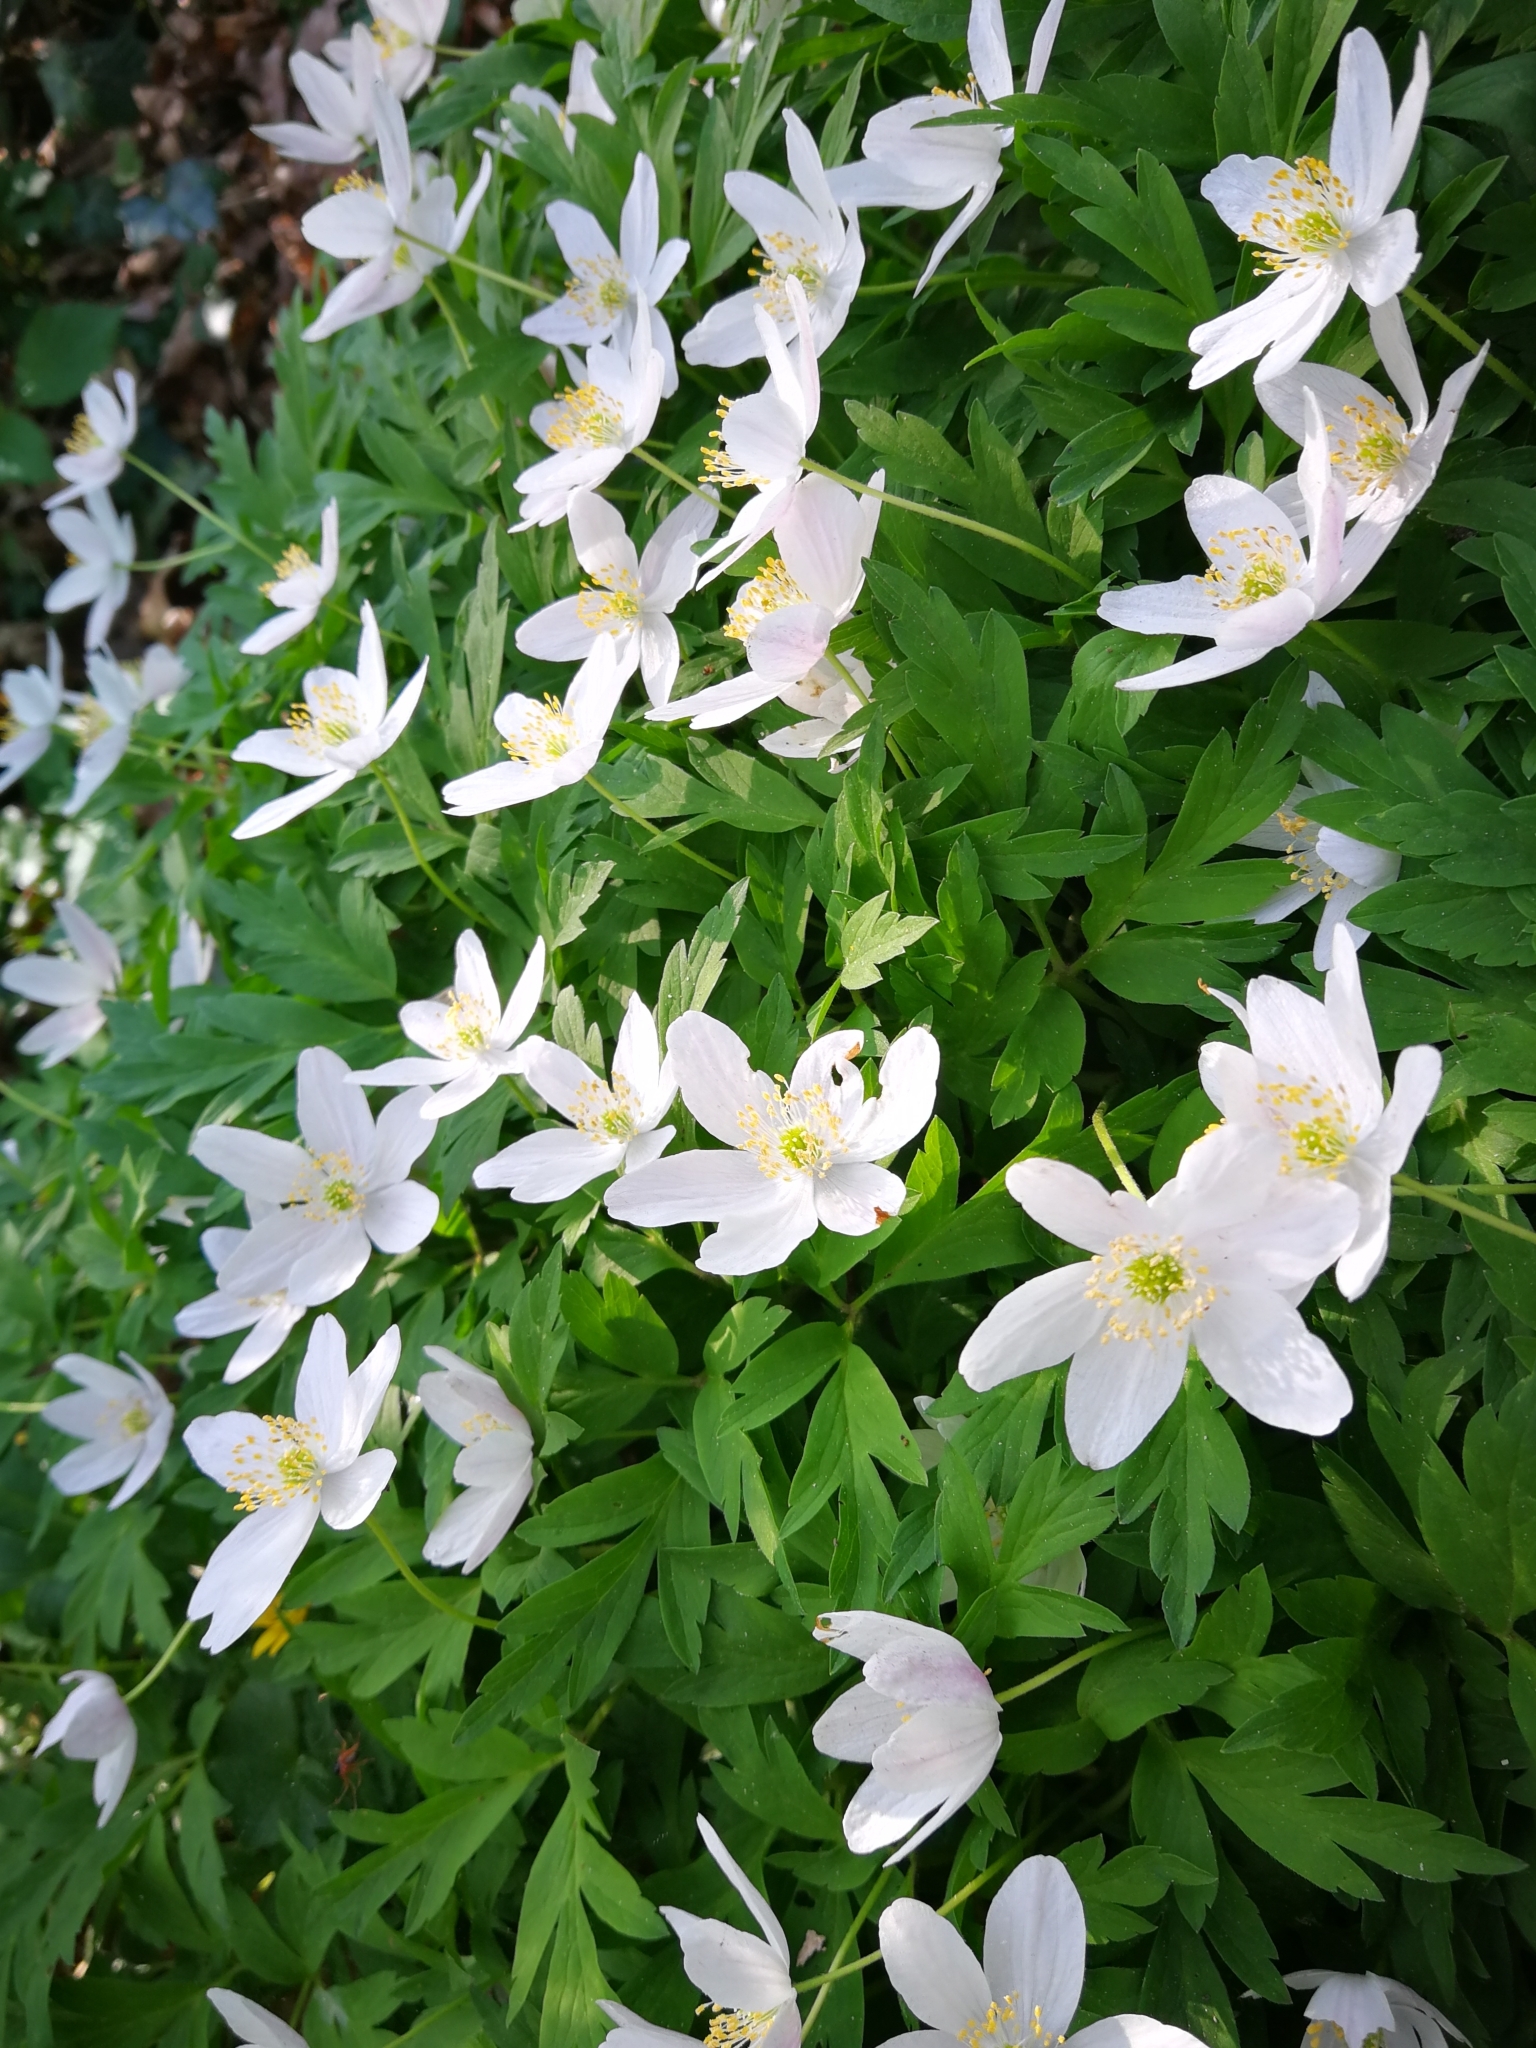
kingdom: Plantae
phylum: Tracheophyta
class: Magnoliopsida
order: Ranunculales
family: Ranunculaceae
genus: Anemone
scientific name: Anemone nemorosa
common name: Wood anemone
